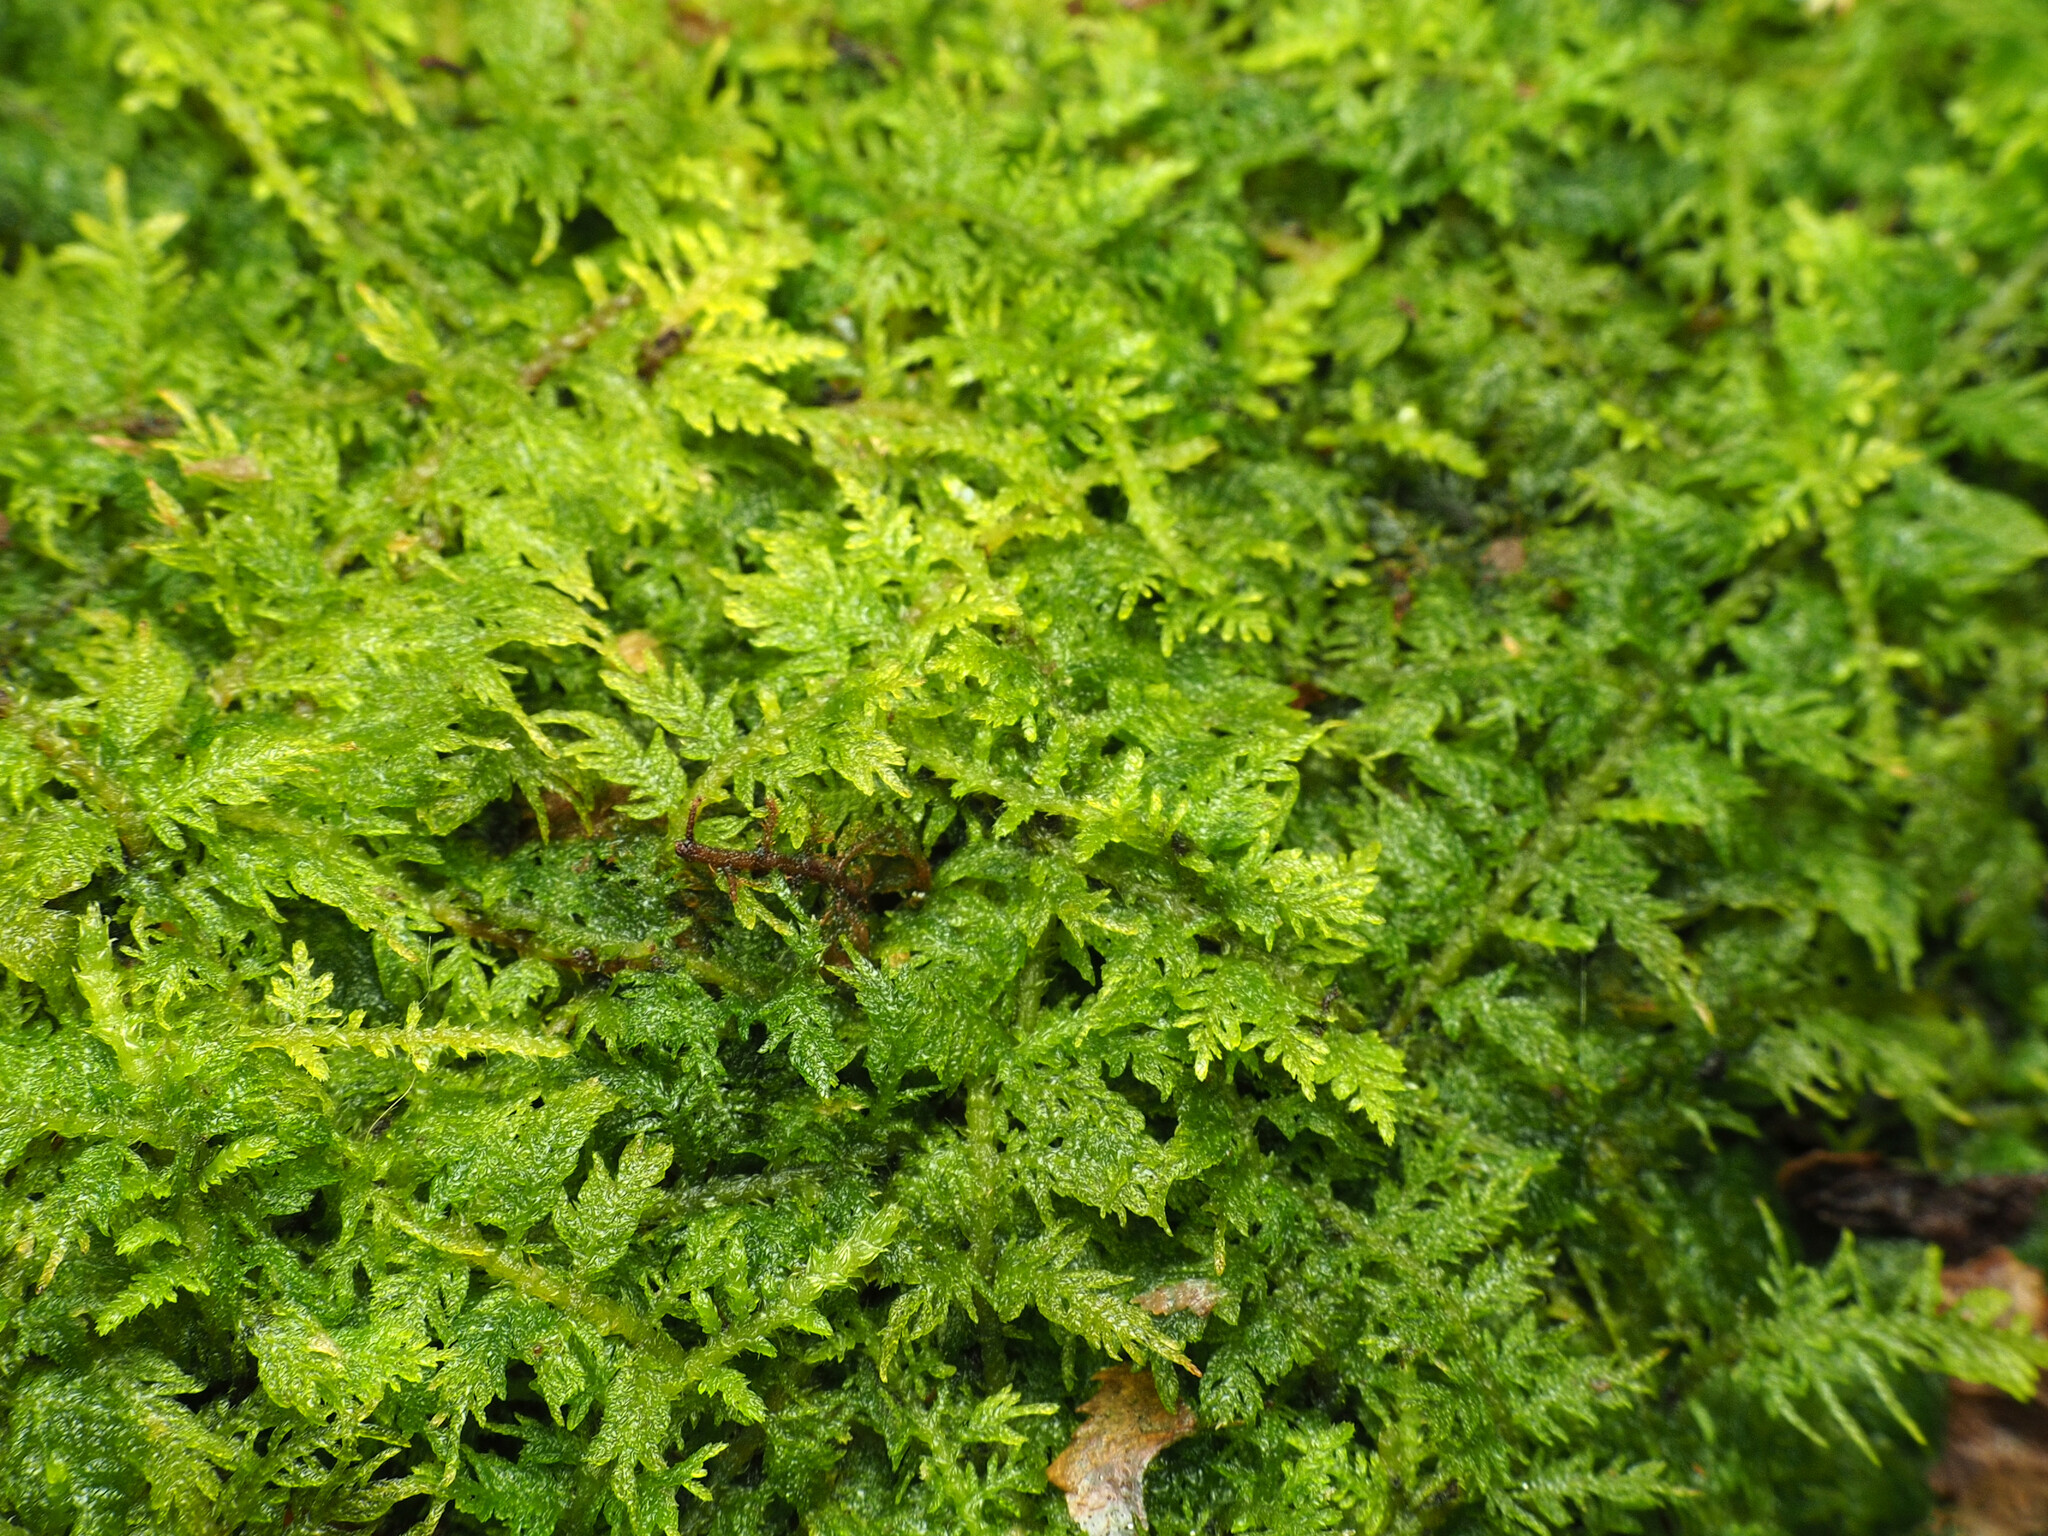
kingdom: Plantae
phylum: Bryophyta
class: Bryopsida
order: Hypnales
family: Thuidiaceae
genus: Thuidium
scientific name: Thuidium delicatulum
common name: Delicate fern moss
